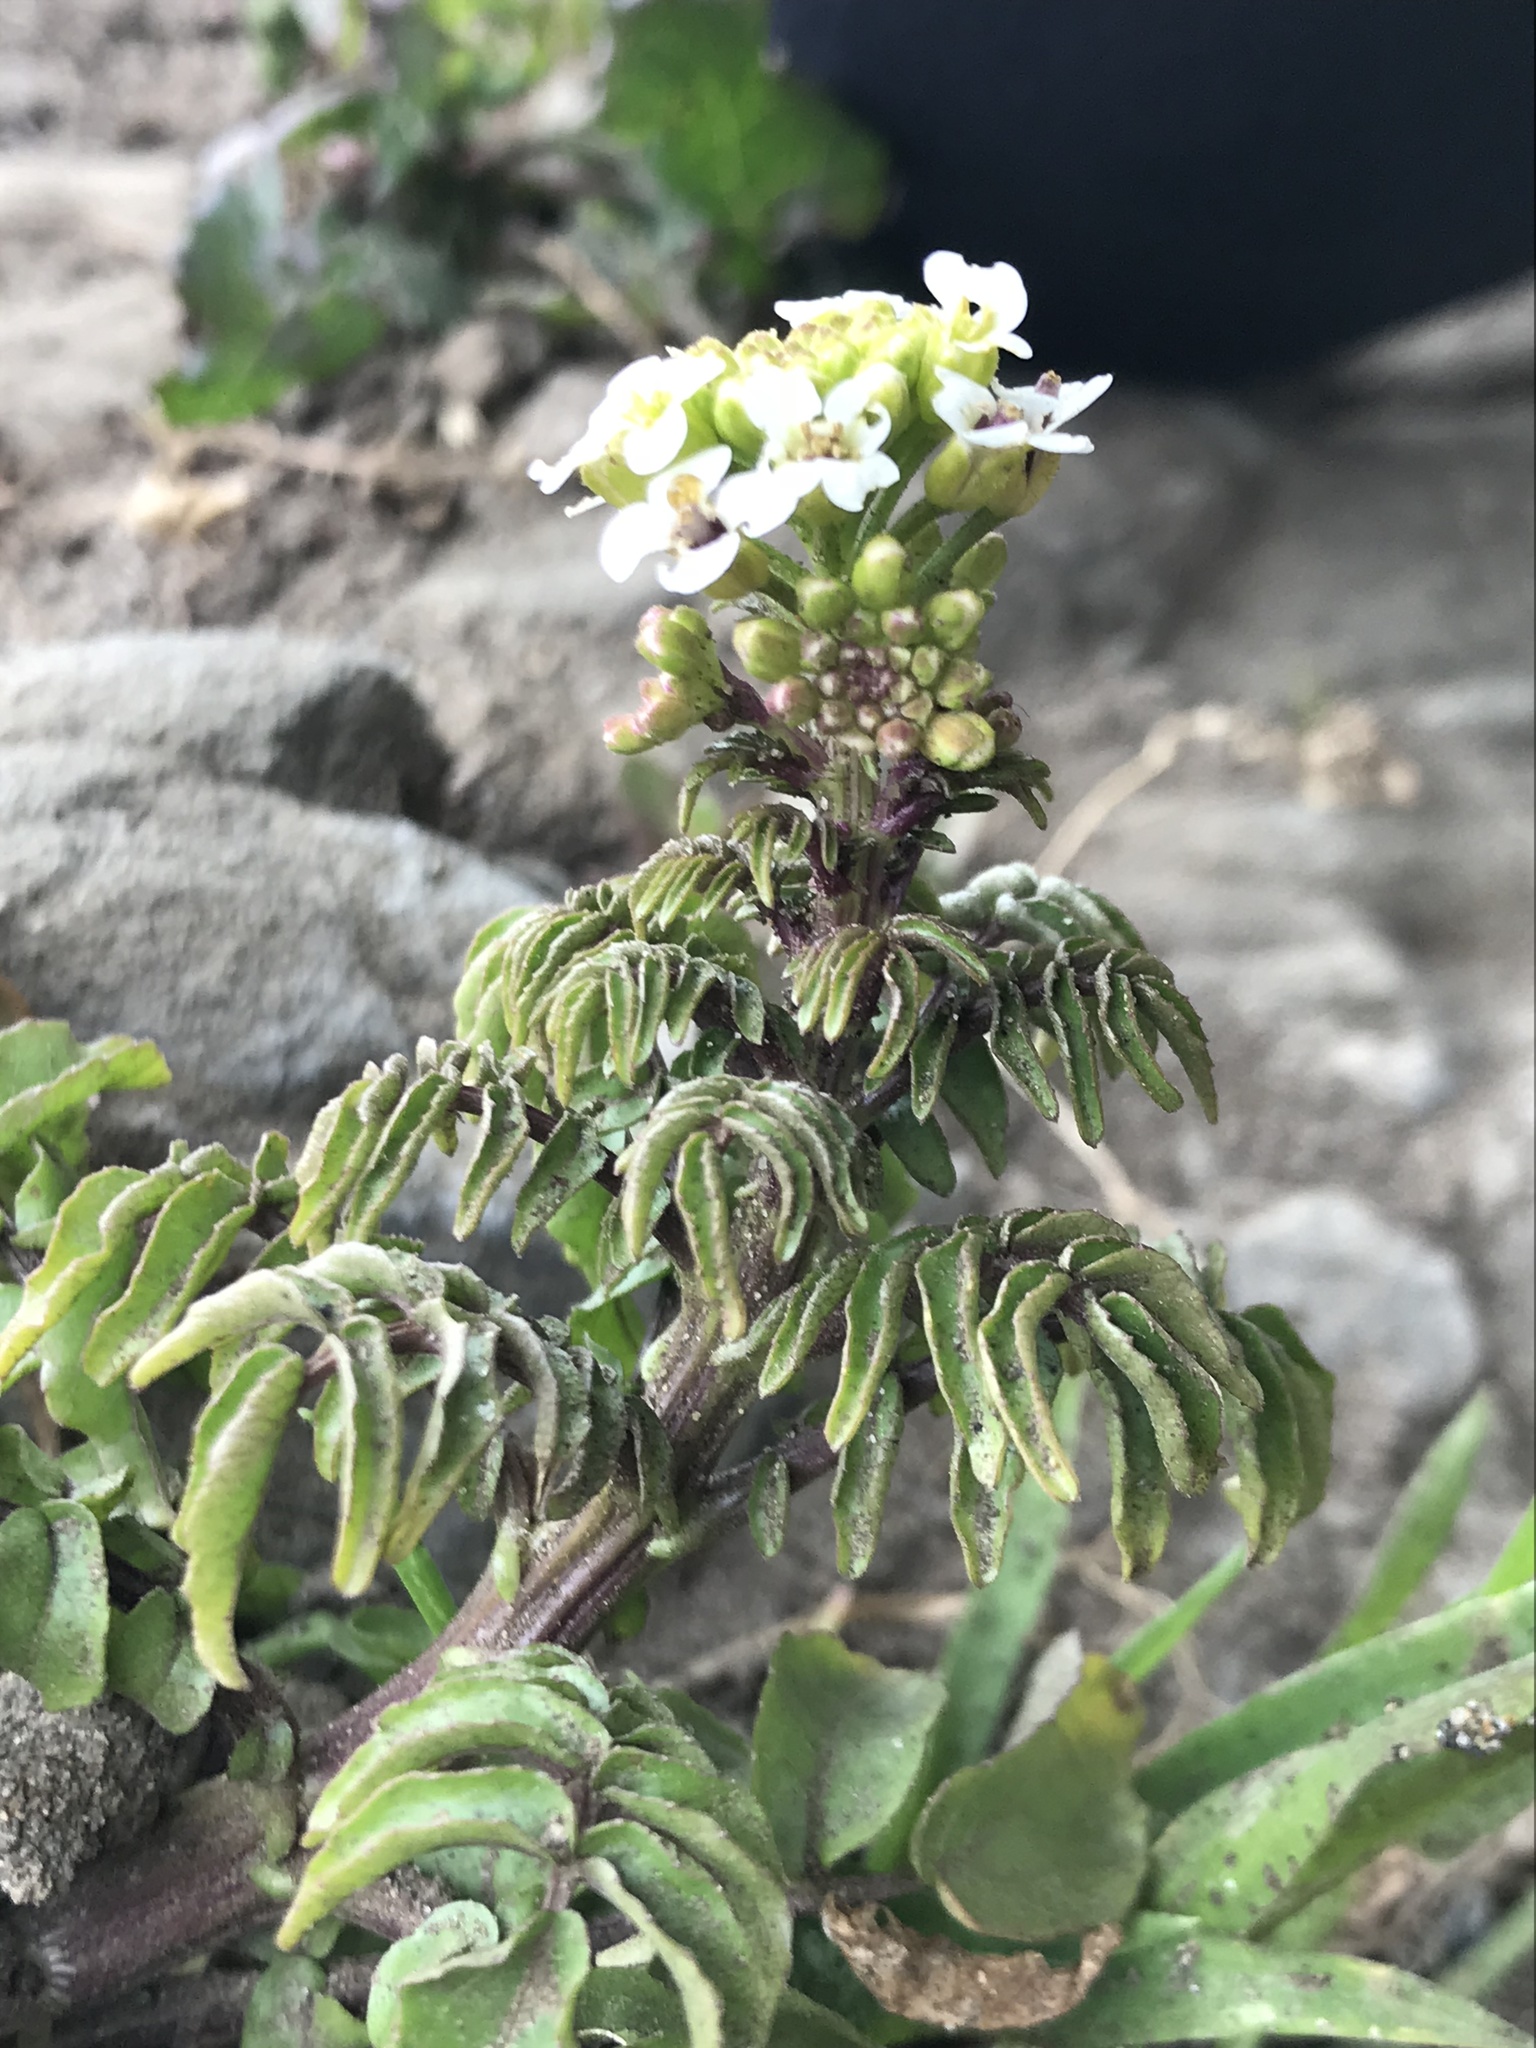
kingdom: Plantae
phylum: Tracheophyta
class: Magnoliopsida
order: Brassicales
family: Brassicaceae
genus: Nasturtium
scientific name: Nasturtium officinale
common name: Watercress
